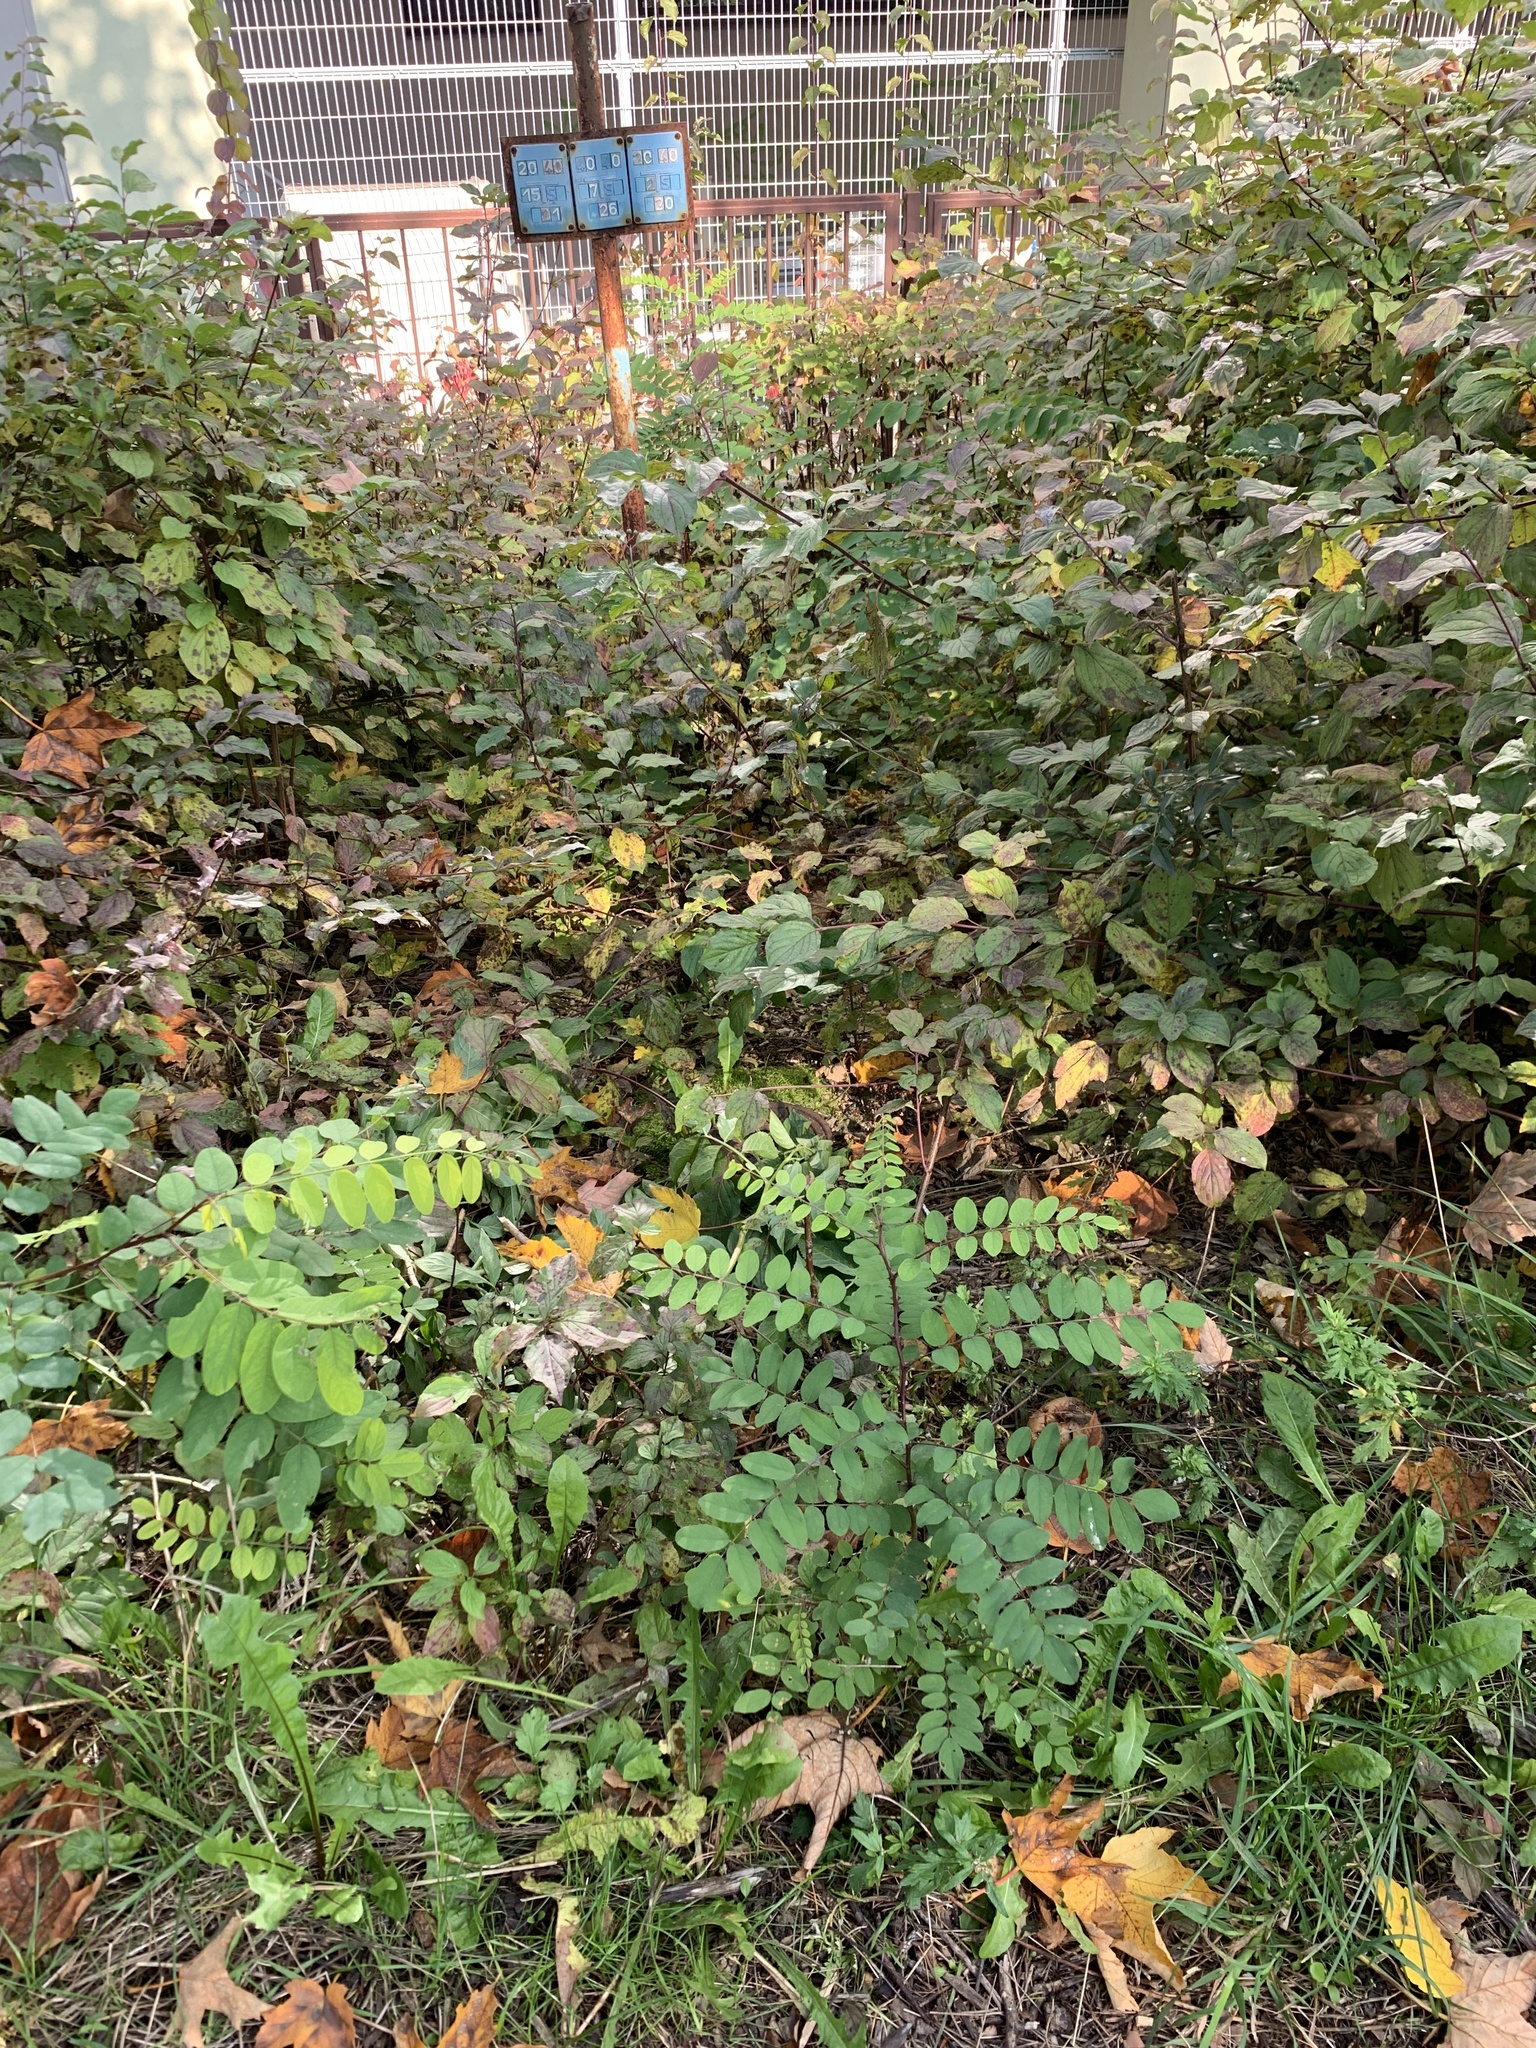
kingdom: Plantae
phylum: Tracheophyta
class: Magnoliopsida
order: Fabales
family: Fabaceae
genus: Robinia
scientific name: Robinia pseudoacacia
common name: Black locust
